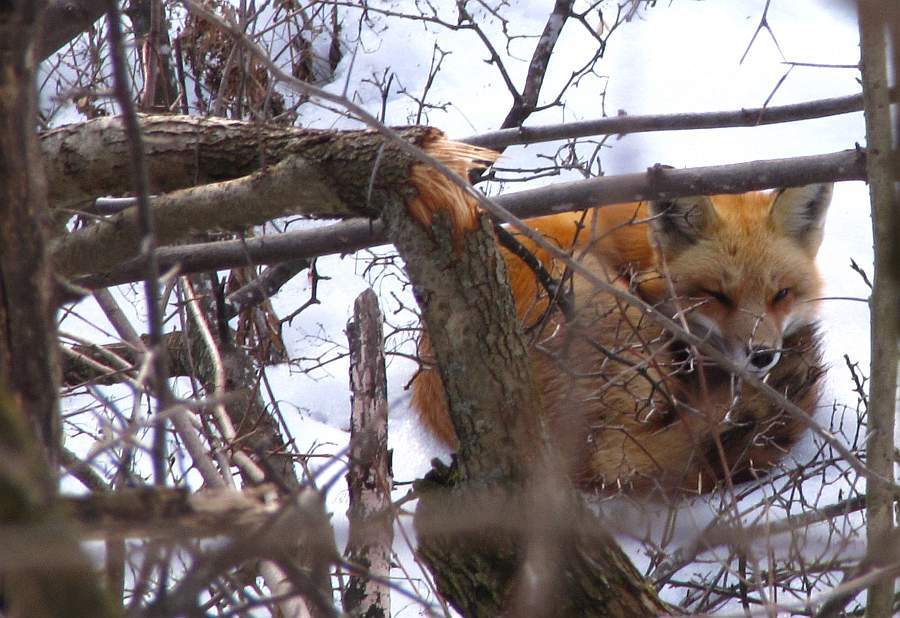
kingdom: Animalia
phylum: Chordata
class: Mammalia
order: Carnivora
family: Canidae
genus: Vulpes
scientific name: Vulpes vulpes
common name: Red fox
